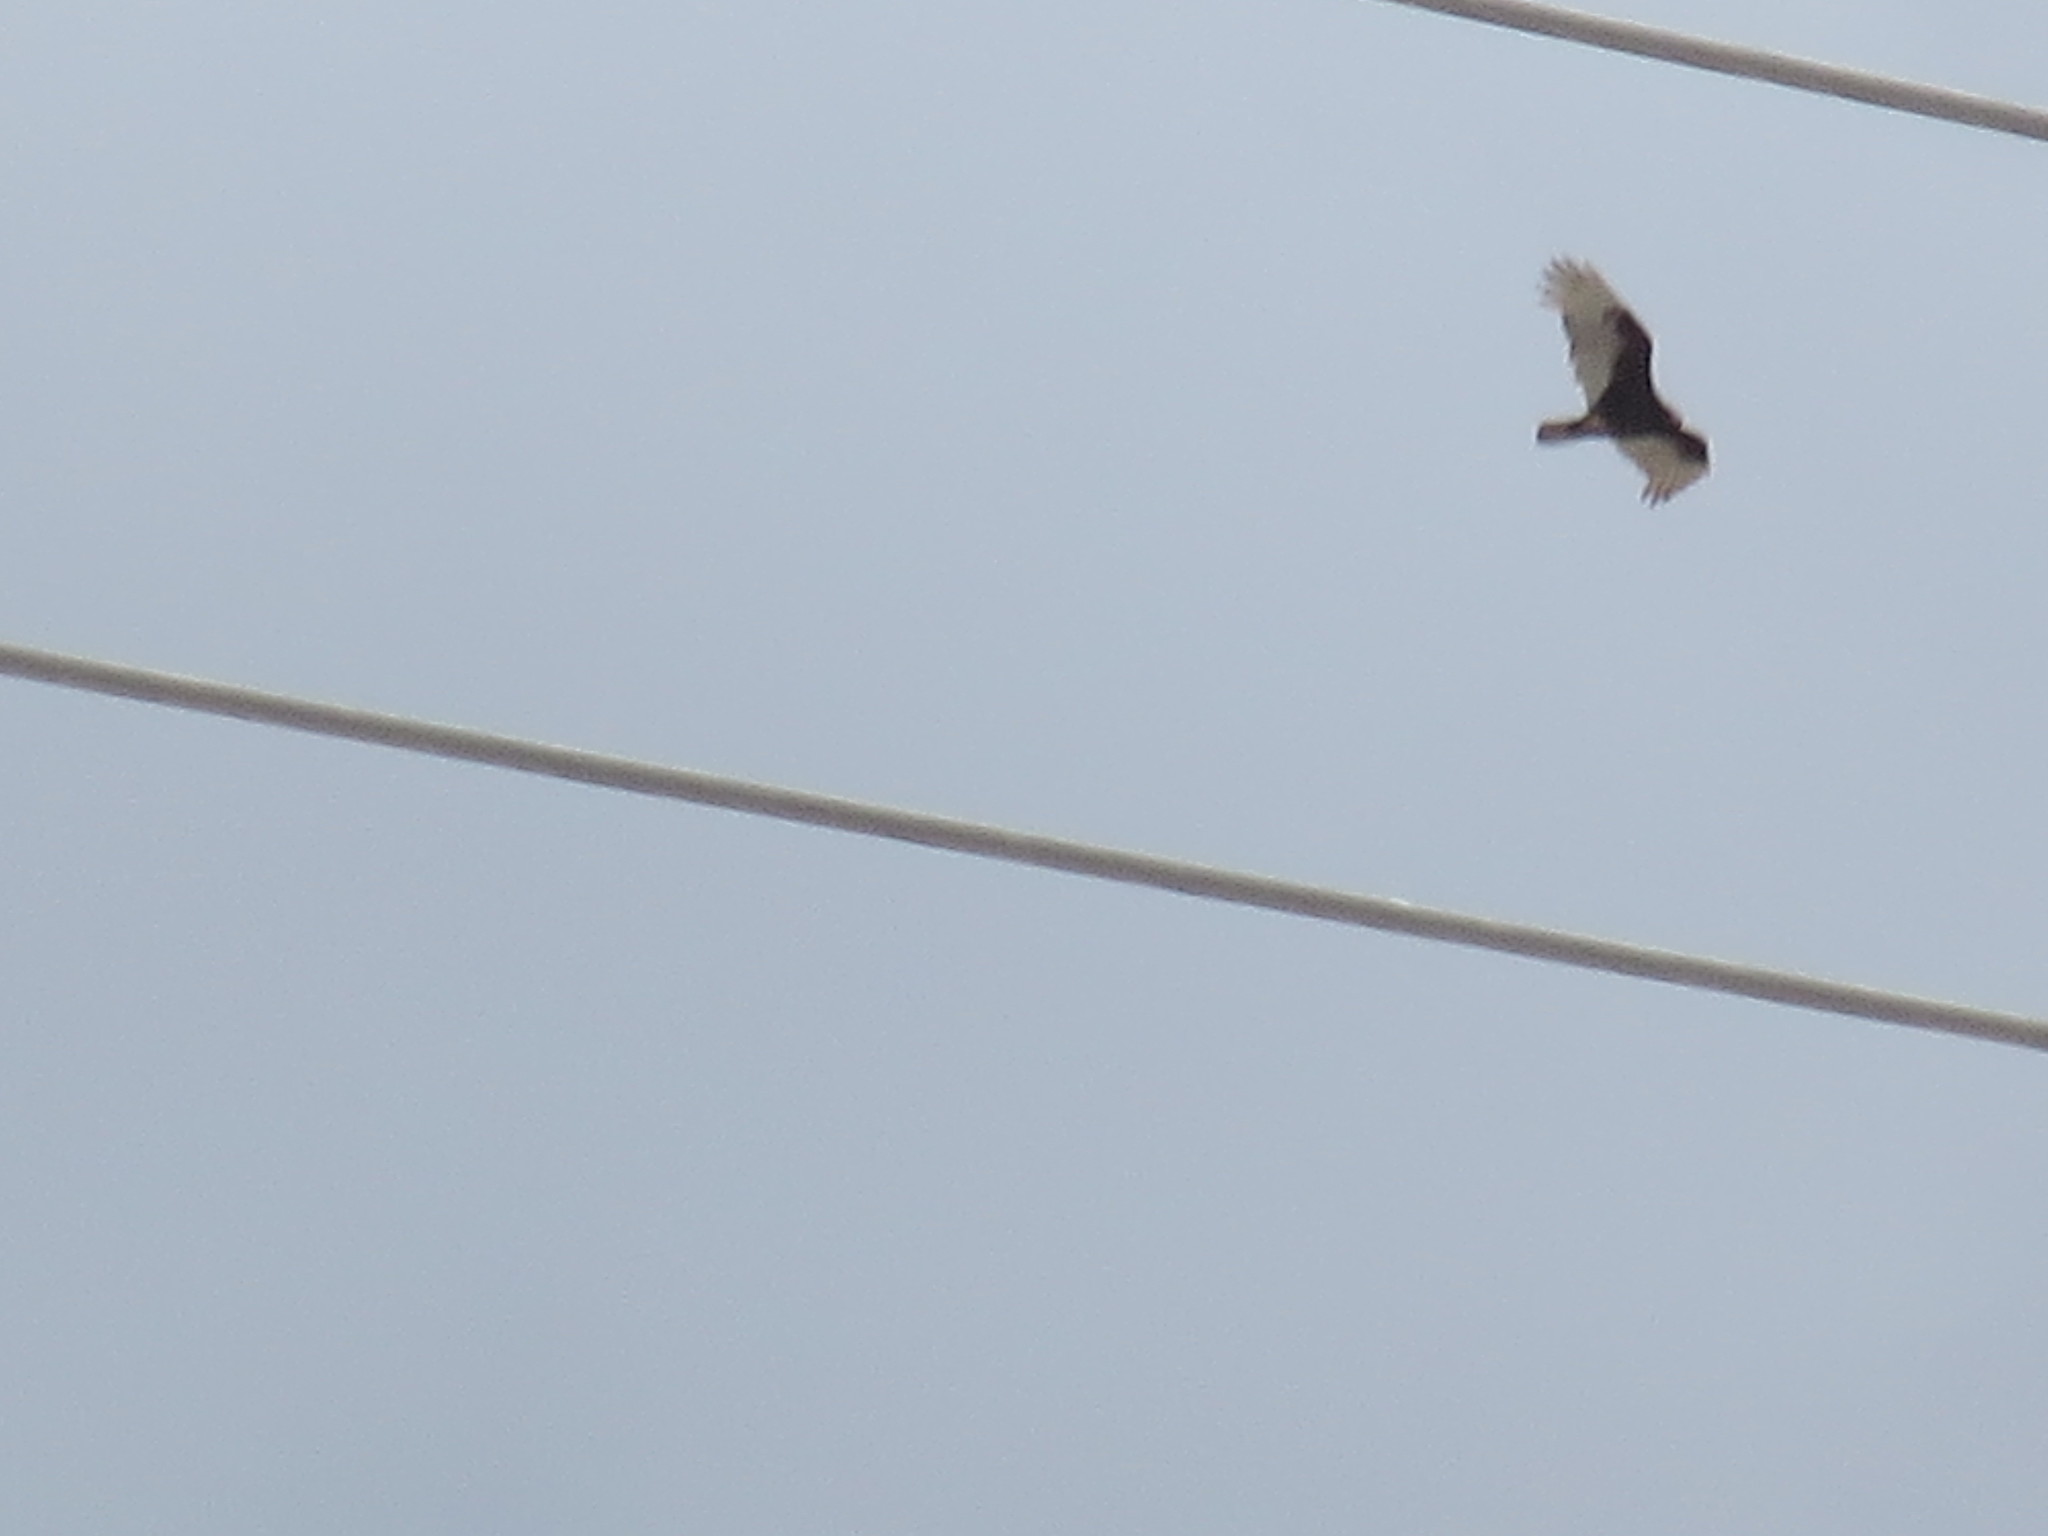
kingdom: Animalia
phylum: Chordata
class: Aves
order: Accipitriformes
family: Cathartidae
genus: Cathartes
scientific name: Cathartes aura
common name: Turkey vulture
